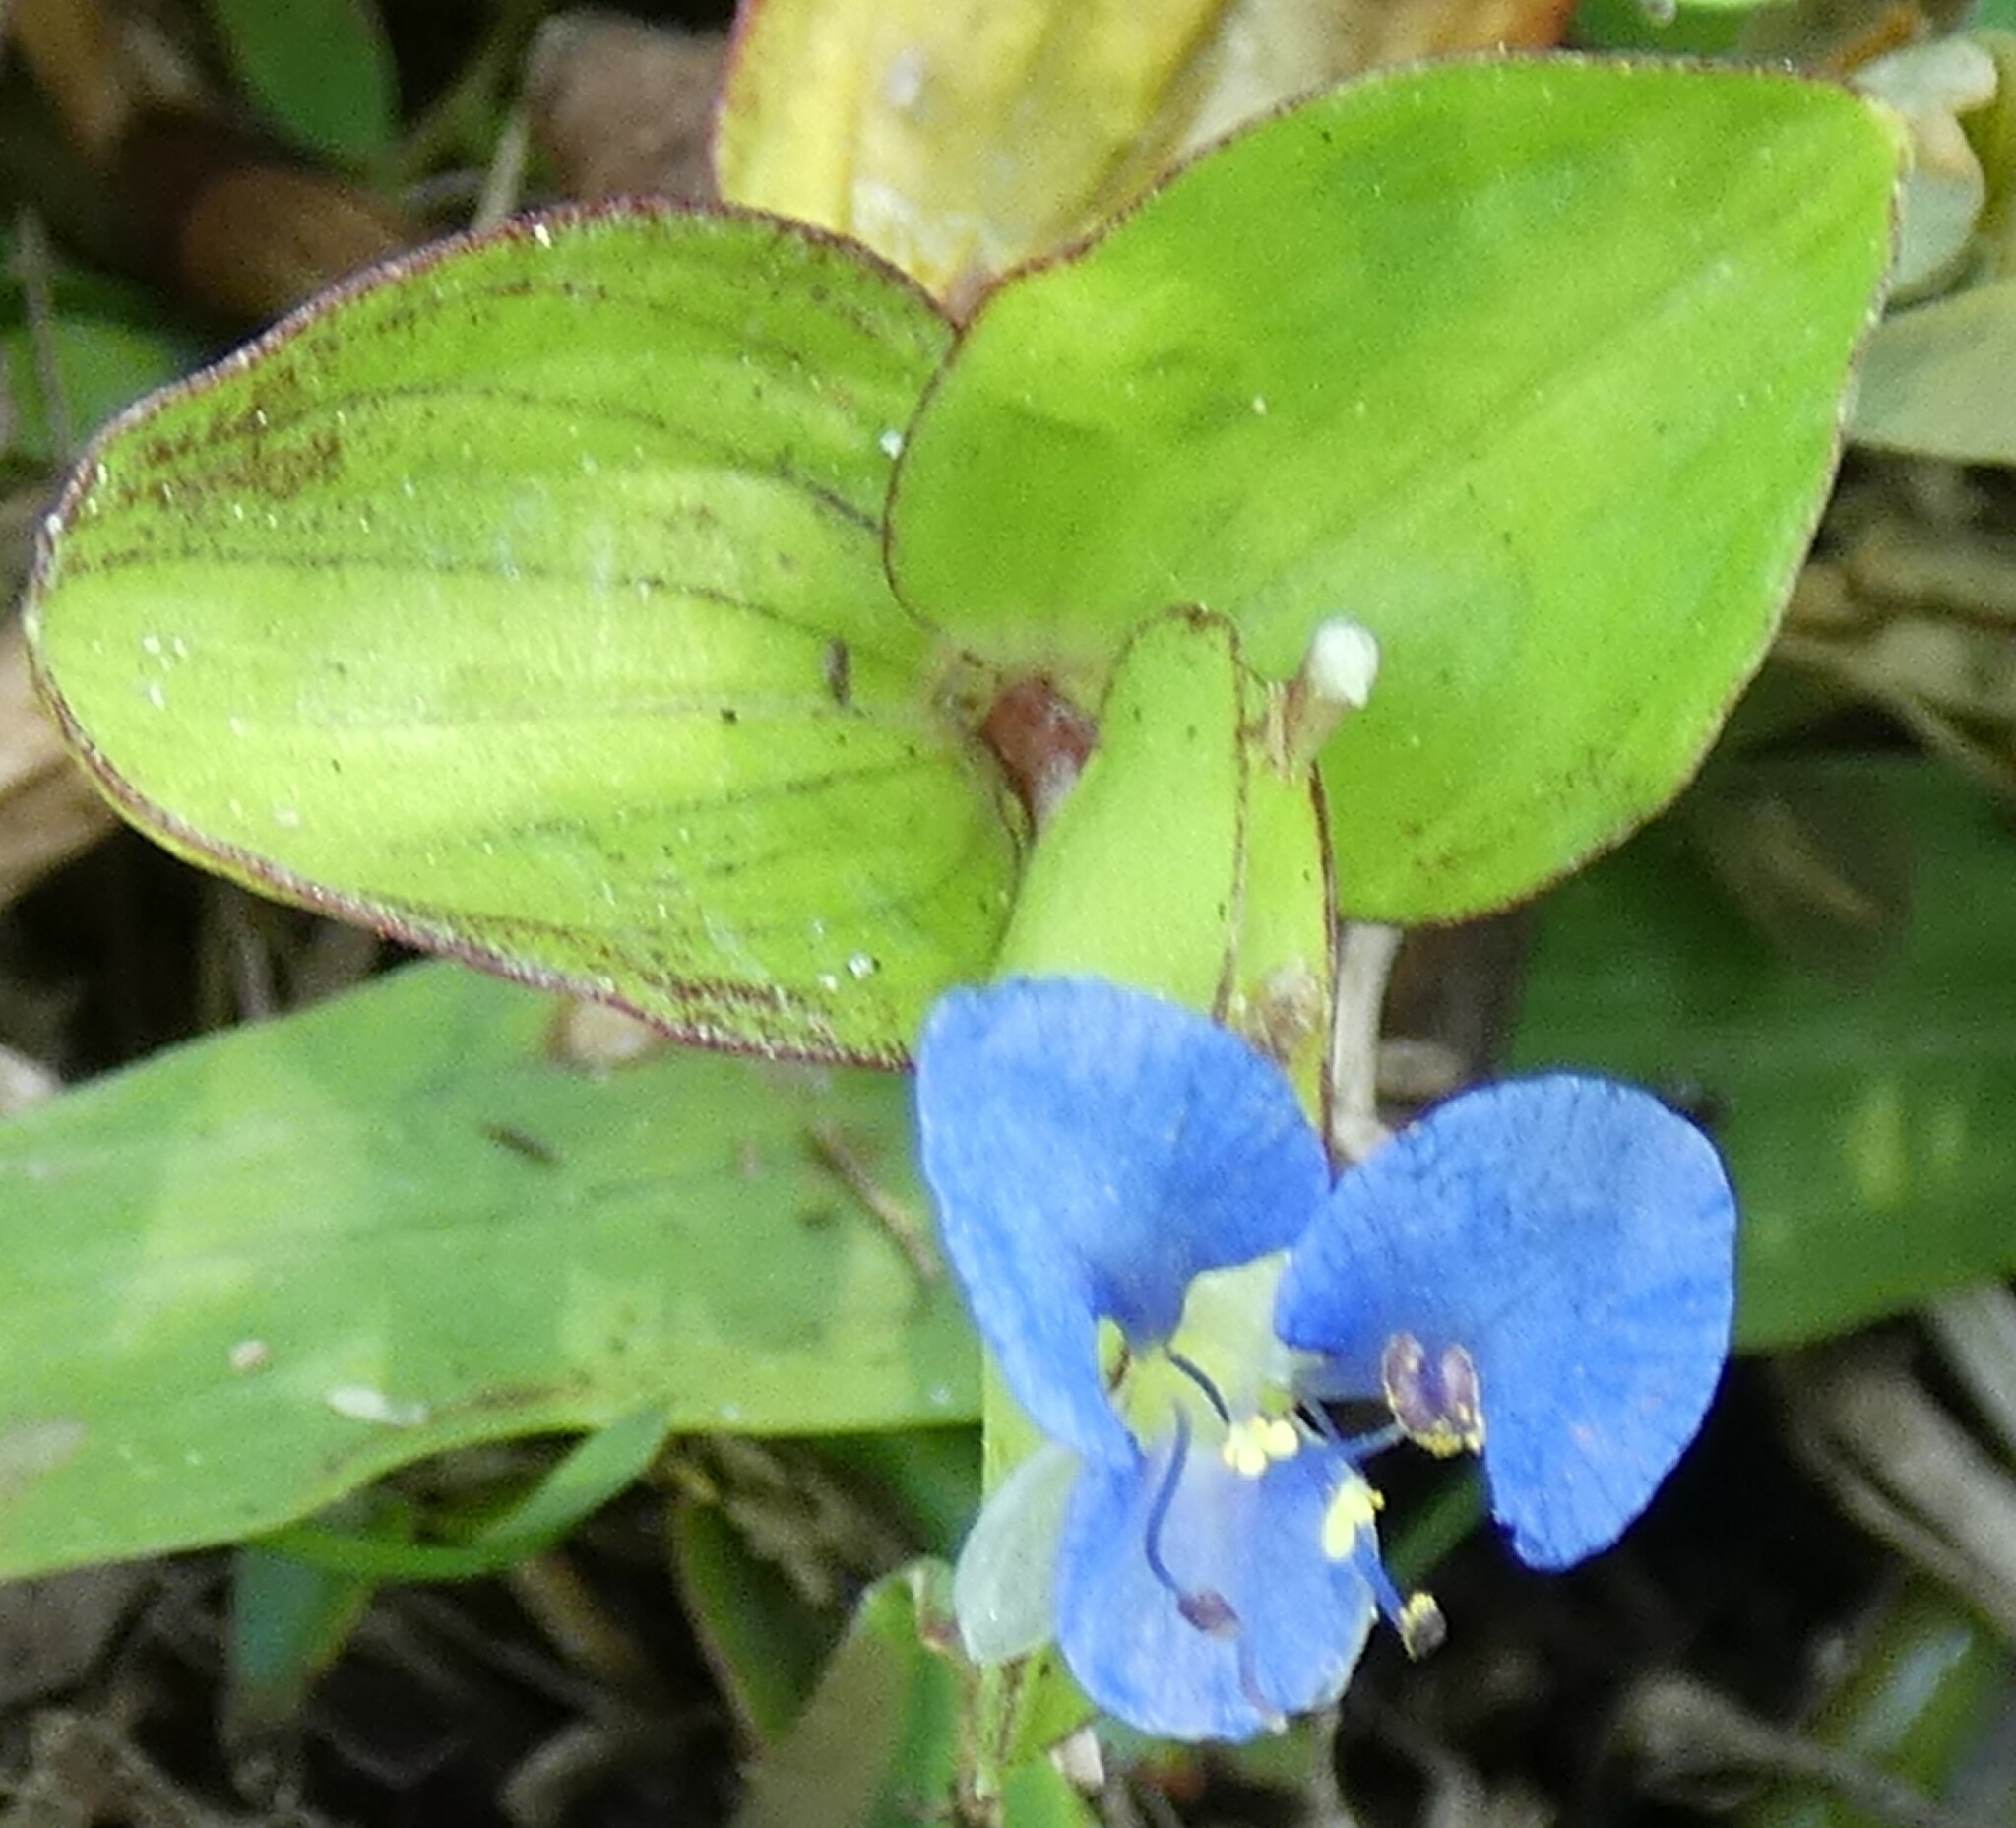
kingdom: Plantae
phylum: Tracheophyta
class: Liliopsida
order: Commelinales
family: Commelinaceae
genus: Commelina
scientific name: Commelina diffusa
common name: Climbing dayflower
